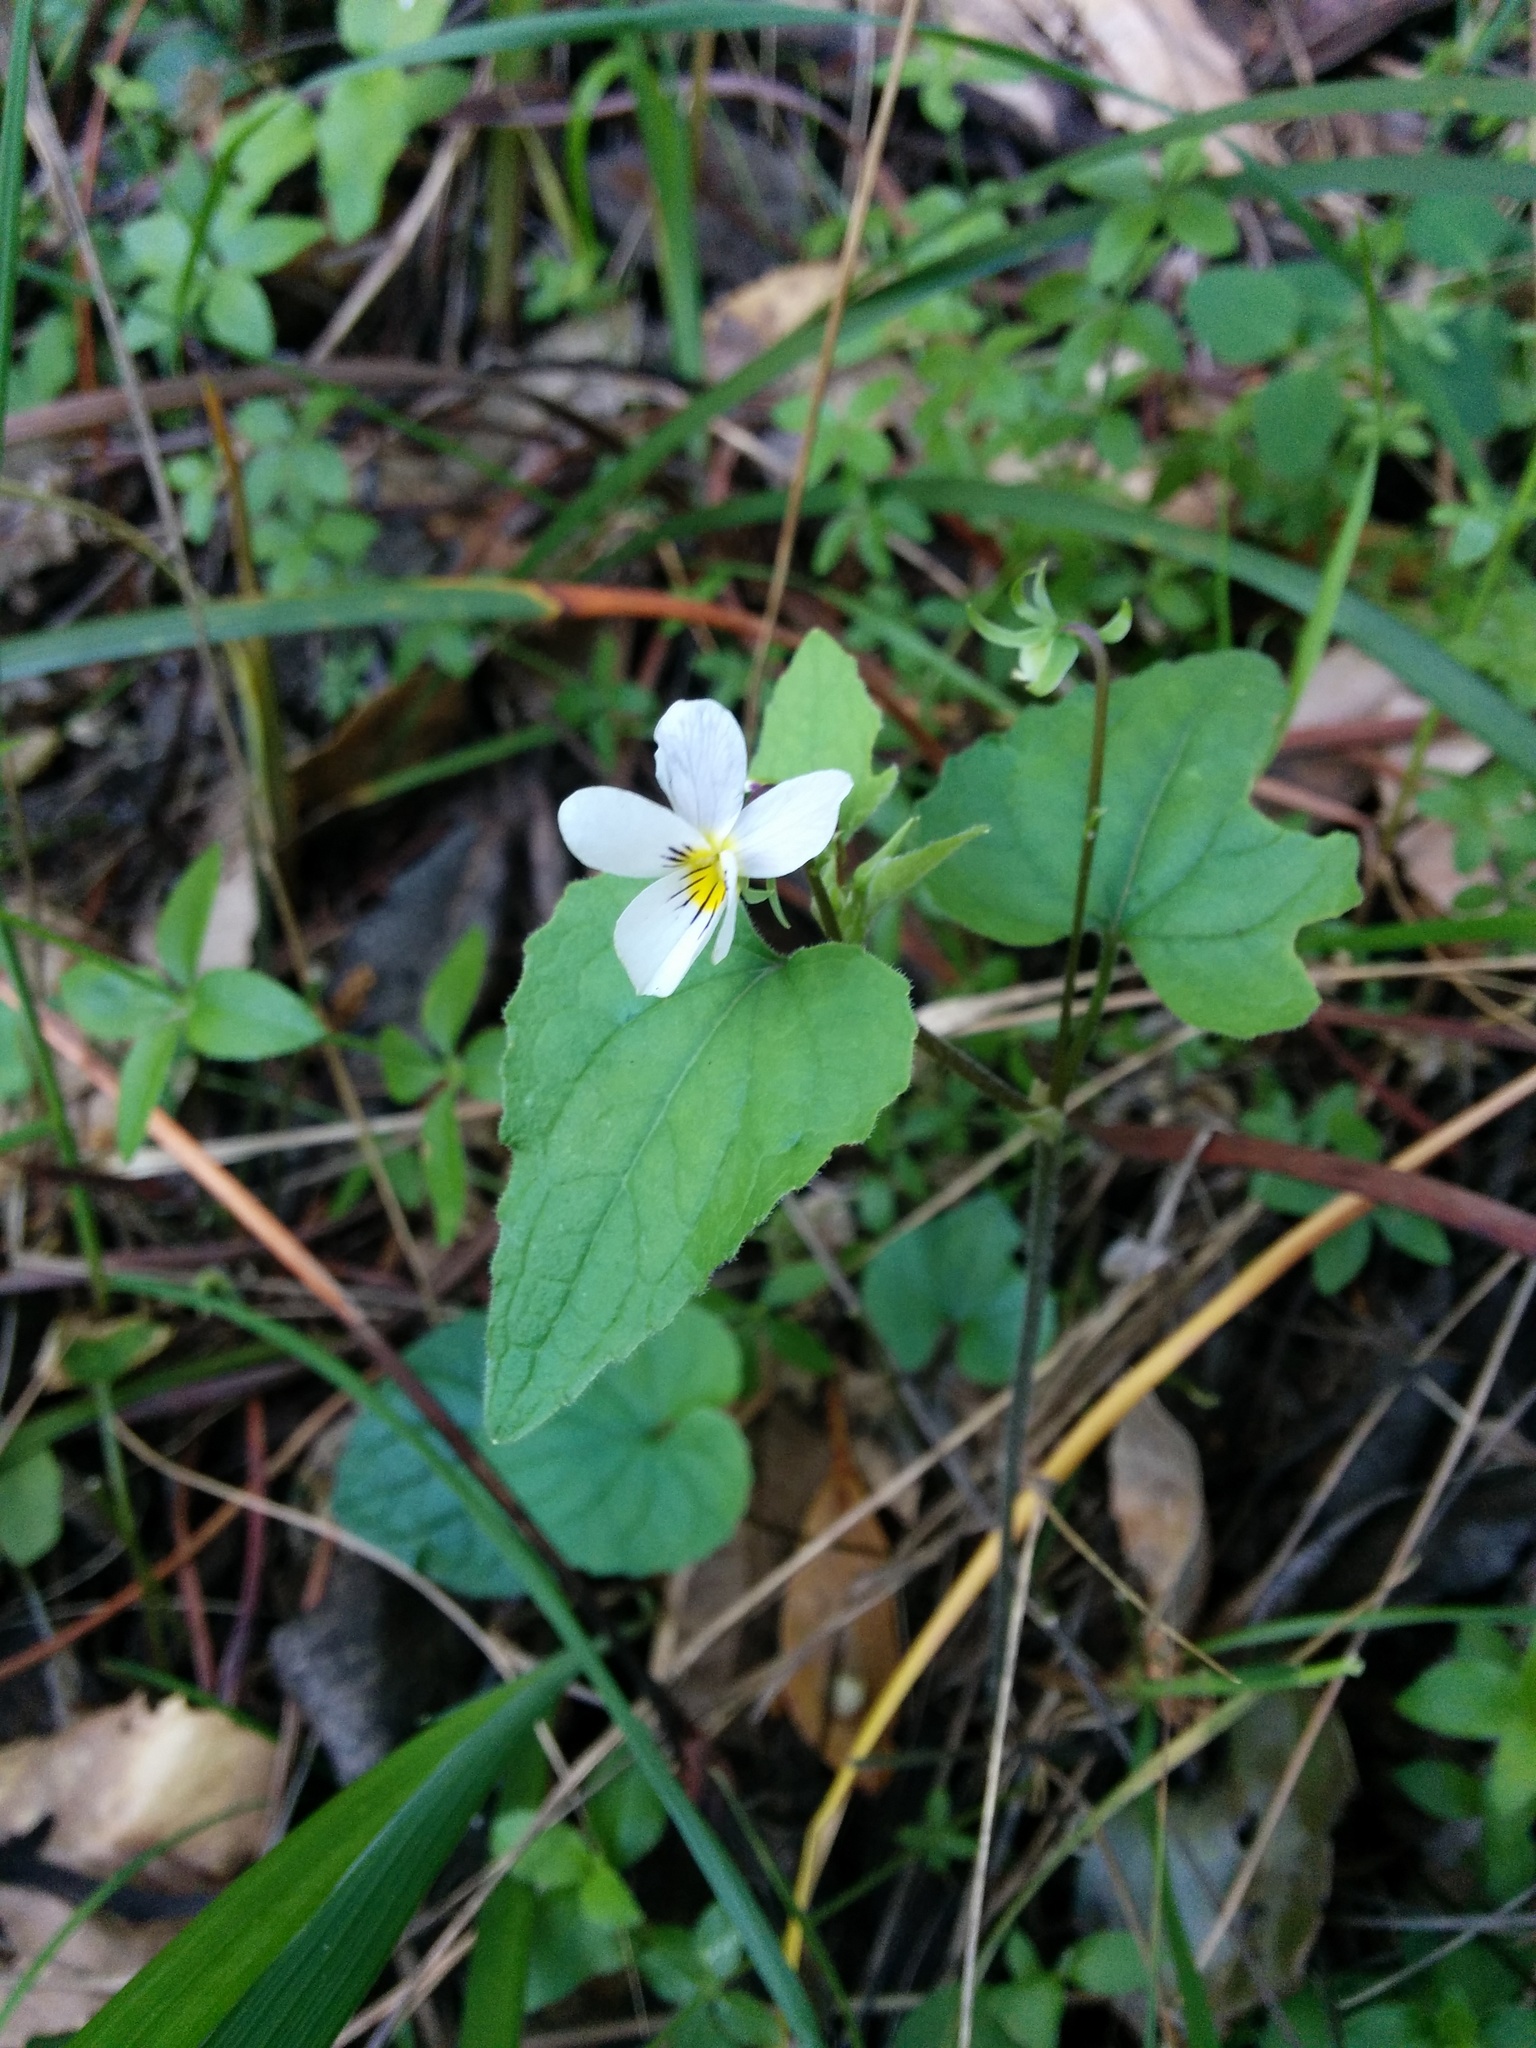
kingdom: Plantae
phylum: Tracheophyta
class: Magnoliopsida
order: Malpighiales
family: Violaceae
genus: Viola
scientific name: Viola ocellata
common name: Western heart's ease
